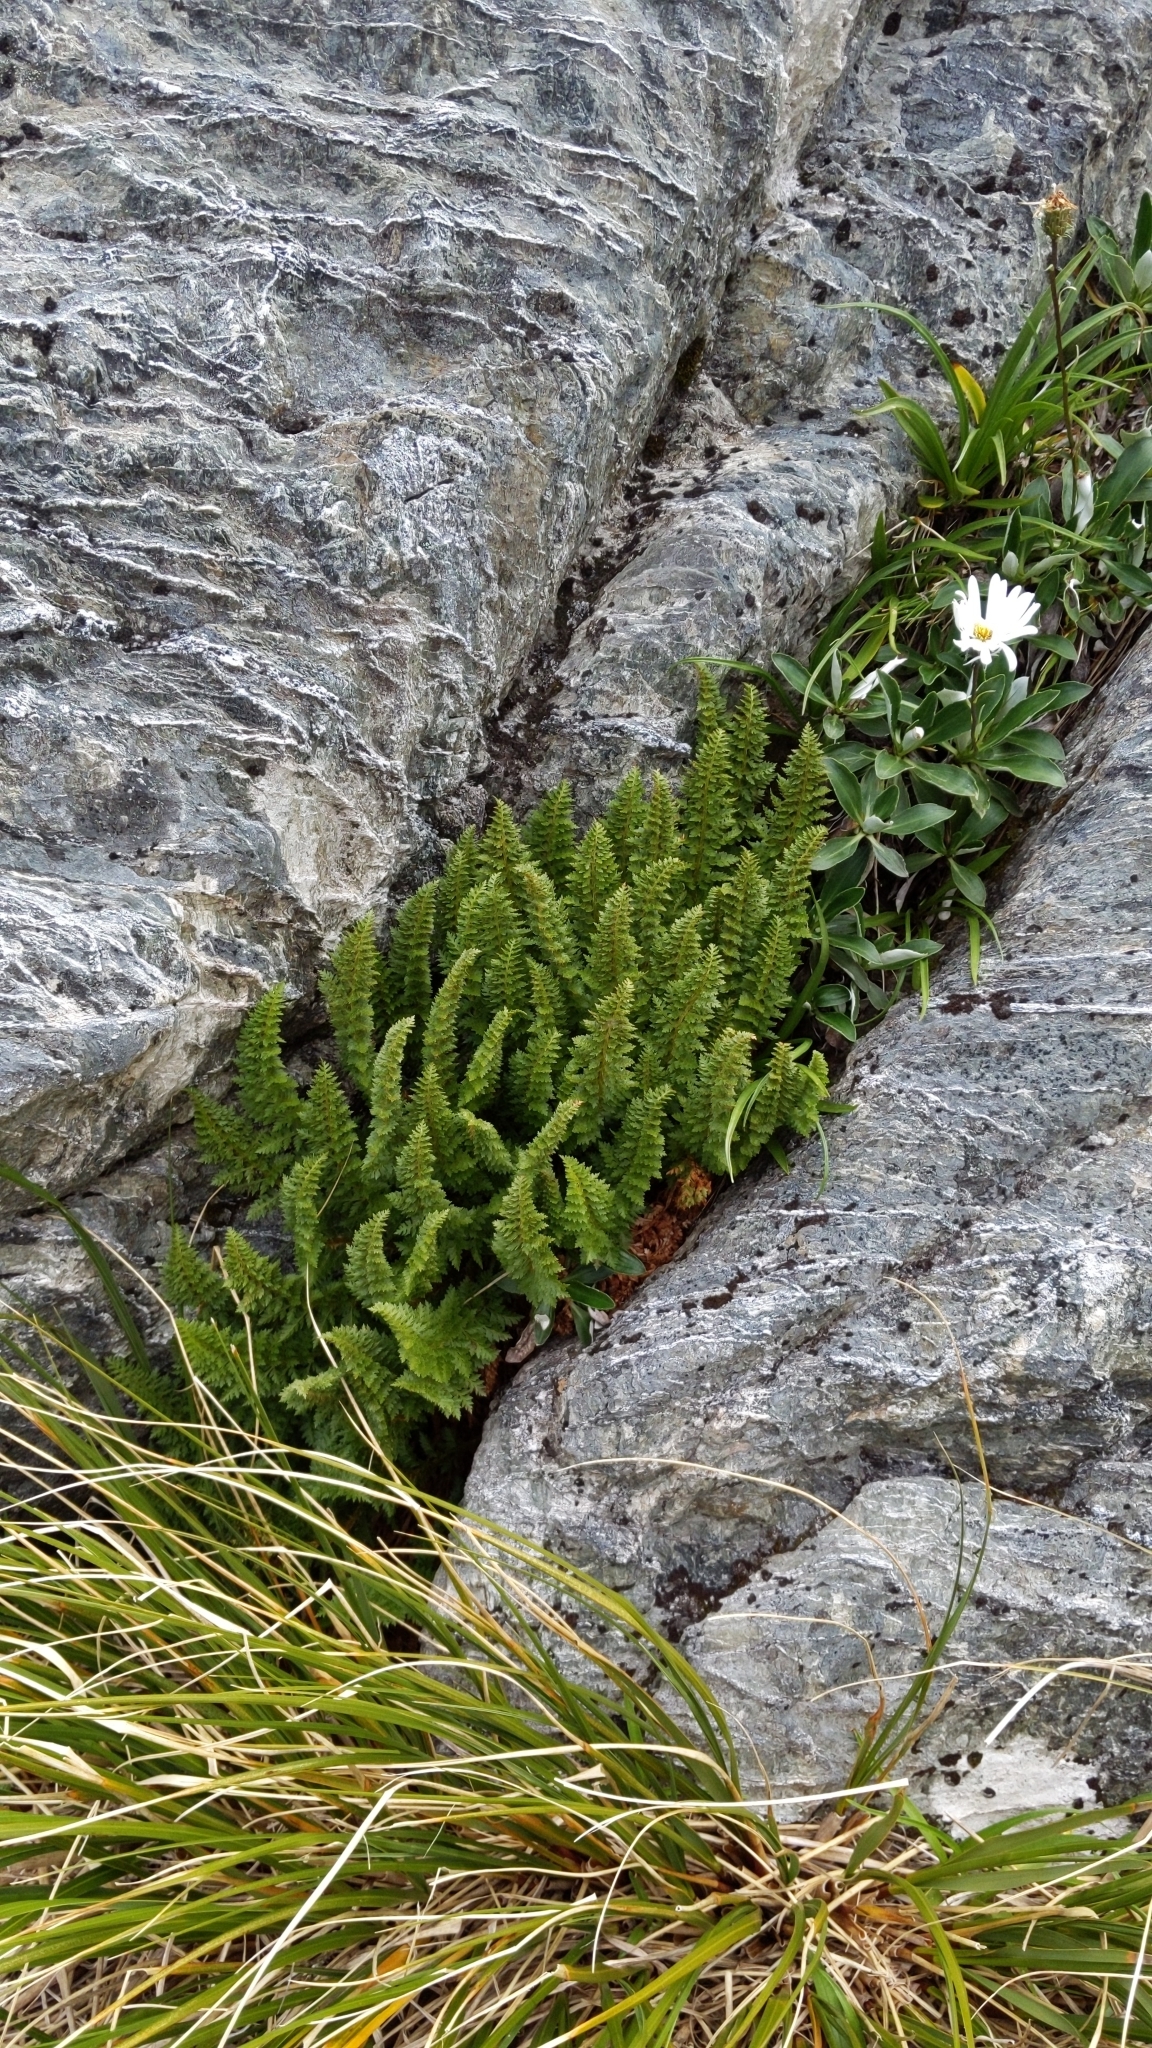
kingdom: Plantae
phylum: Tracheophyta
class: Polypodiopsida
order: Polypodiales
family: Dryopteridaceae
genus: Polystichum
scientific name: Polystichum cystostegia
